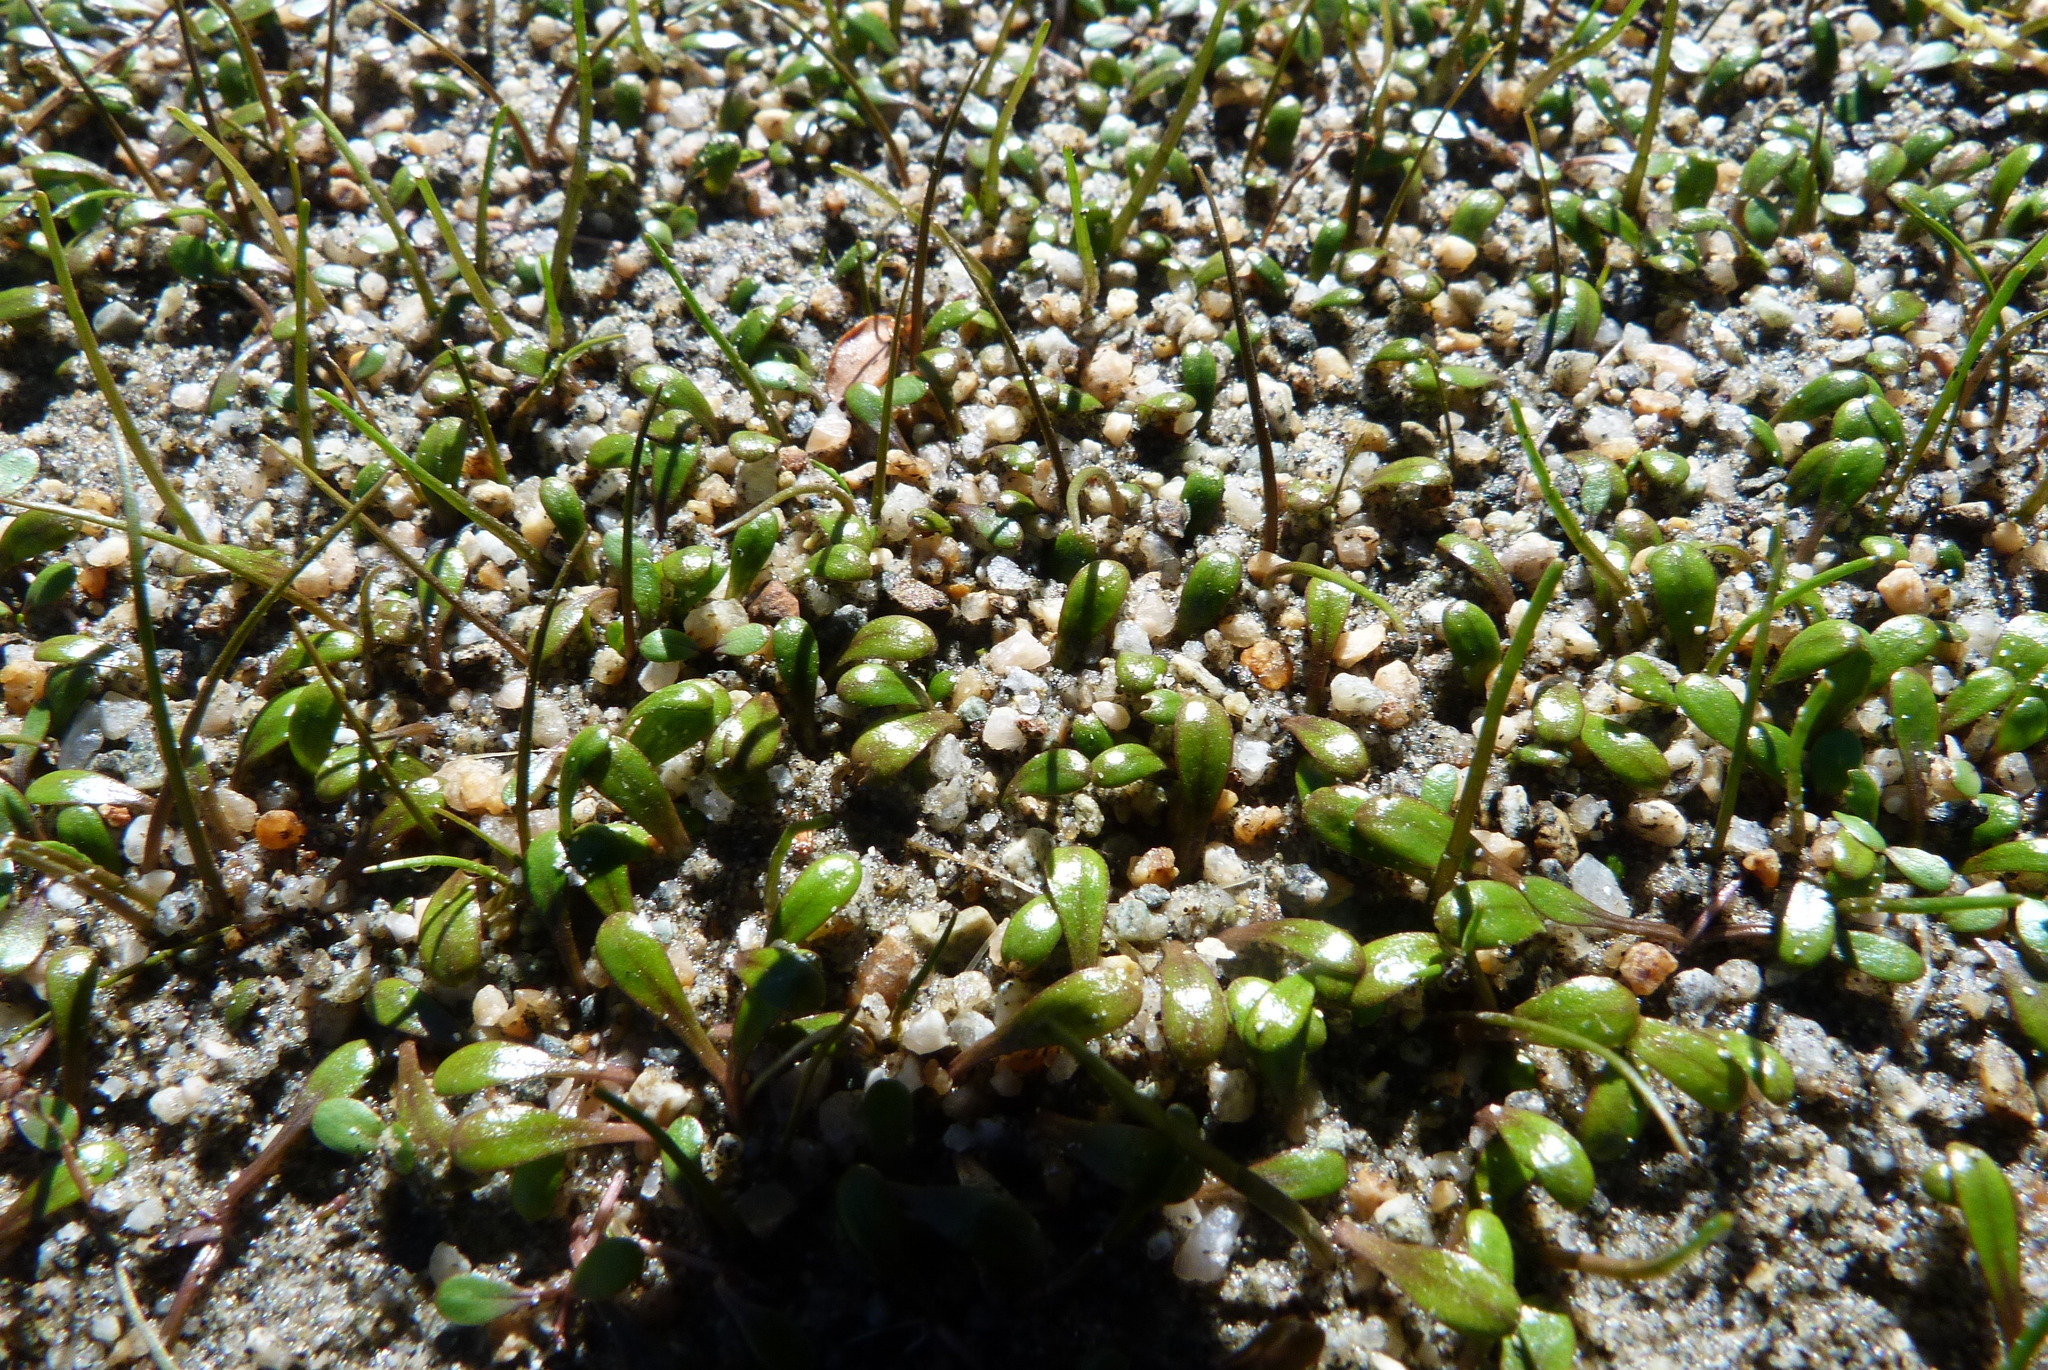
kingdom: Plantae
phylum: Tracheophyta
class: Magnoliopsida
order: Lamiales
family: Phrymaceae
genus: Glossostigma
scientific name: Glossostigma elatinoides
